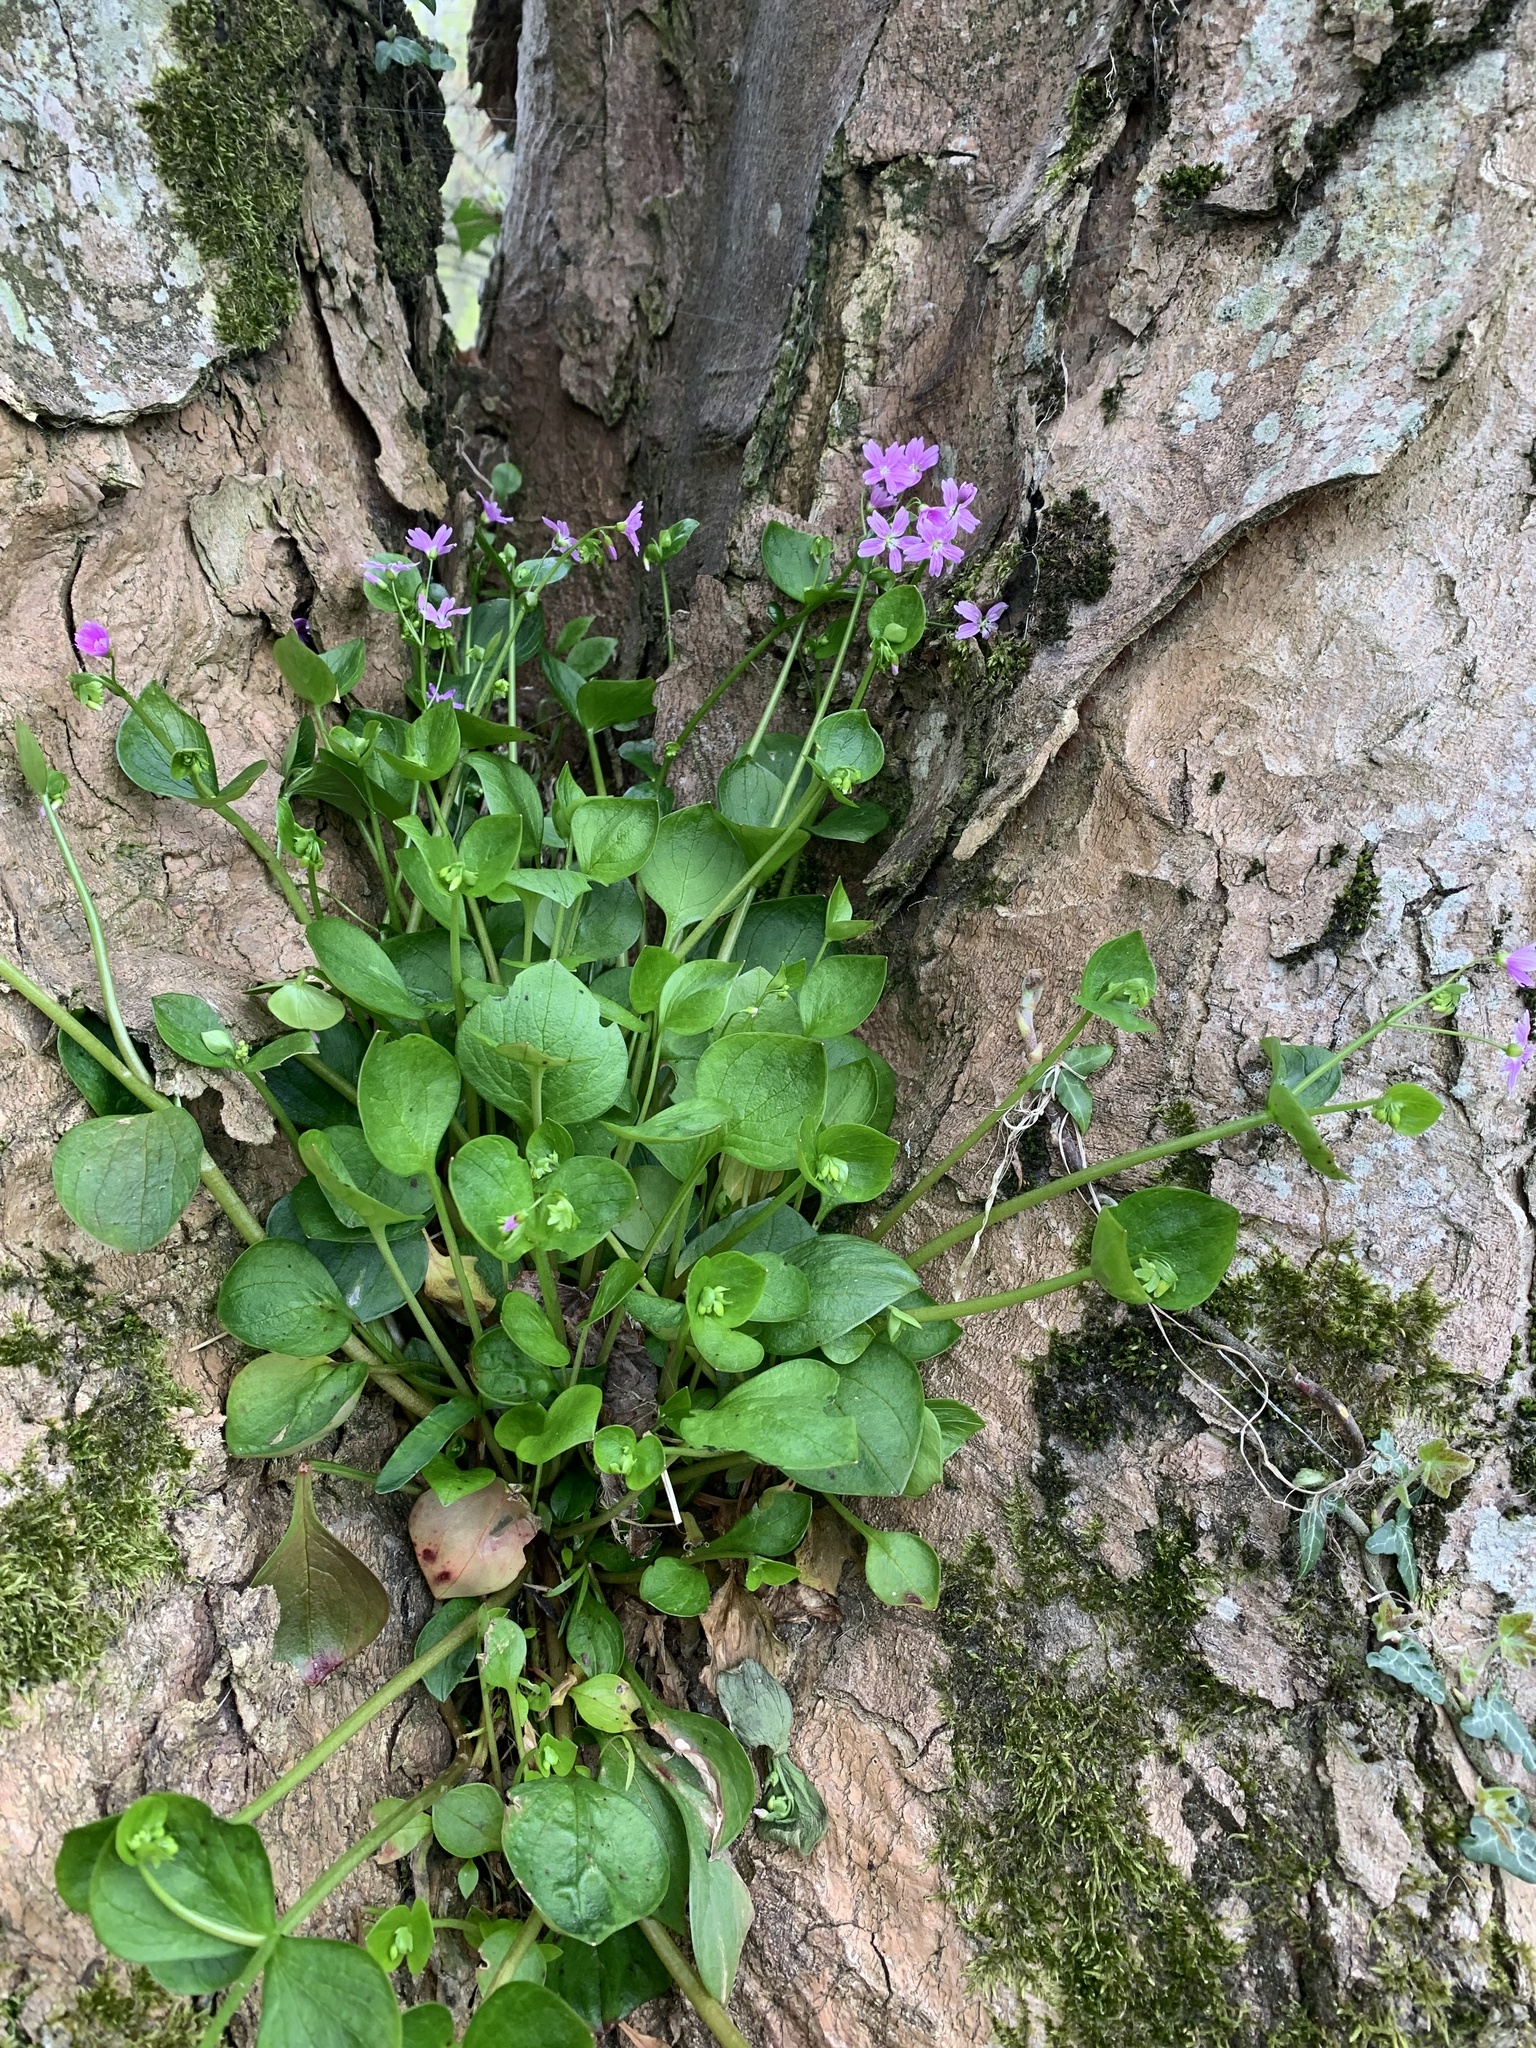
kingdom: Plantae
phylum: Tracheophyta
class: Magnoliopsida
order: Caryophyllales
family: Montiaceae
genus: Claytonia
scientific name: Claytonia sibirica
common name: Pink purslane
